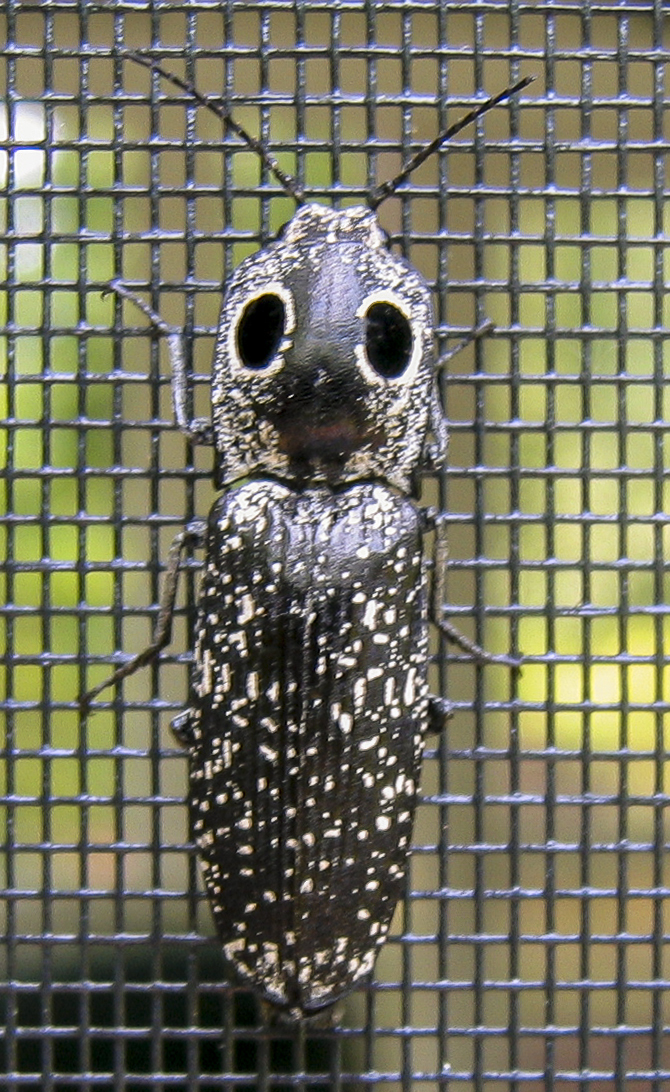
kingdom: Animalia
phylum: Arthropoda
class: Insecta
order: Coleoptera
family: Elateridae
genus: Alaus
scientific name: Alaus oculatus
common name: Eastern eyed click beetle
